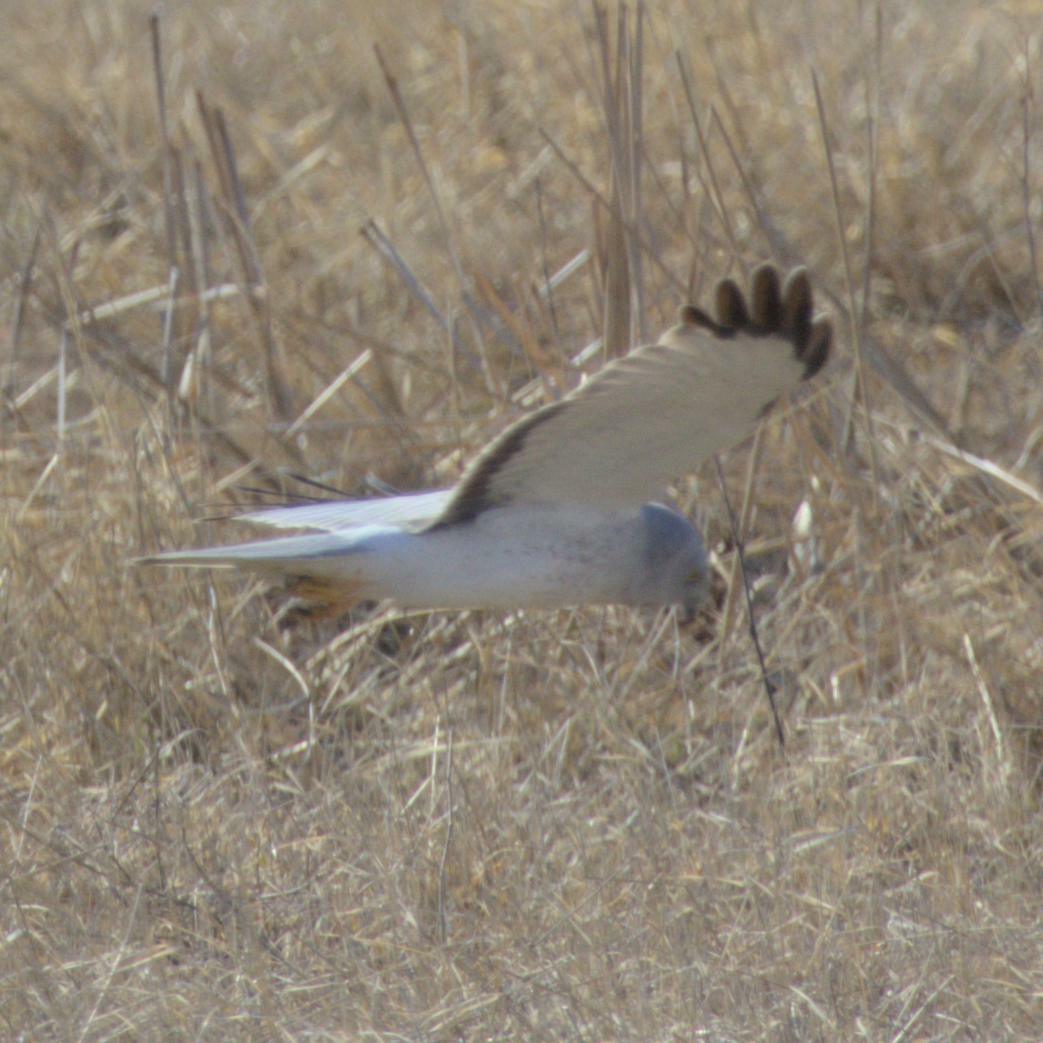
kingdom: Animalia
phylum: Chordata
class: Aves
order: Accipitriformes
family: Accipitridae
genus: Circus
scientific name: Circus cyaneus
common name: Hen harrier
